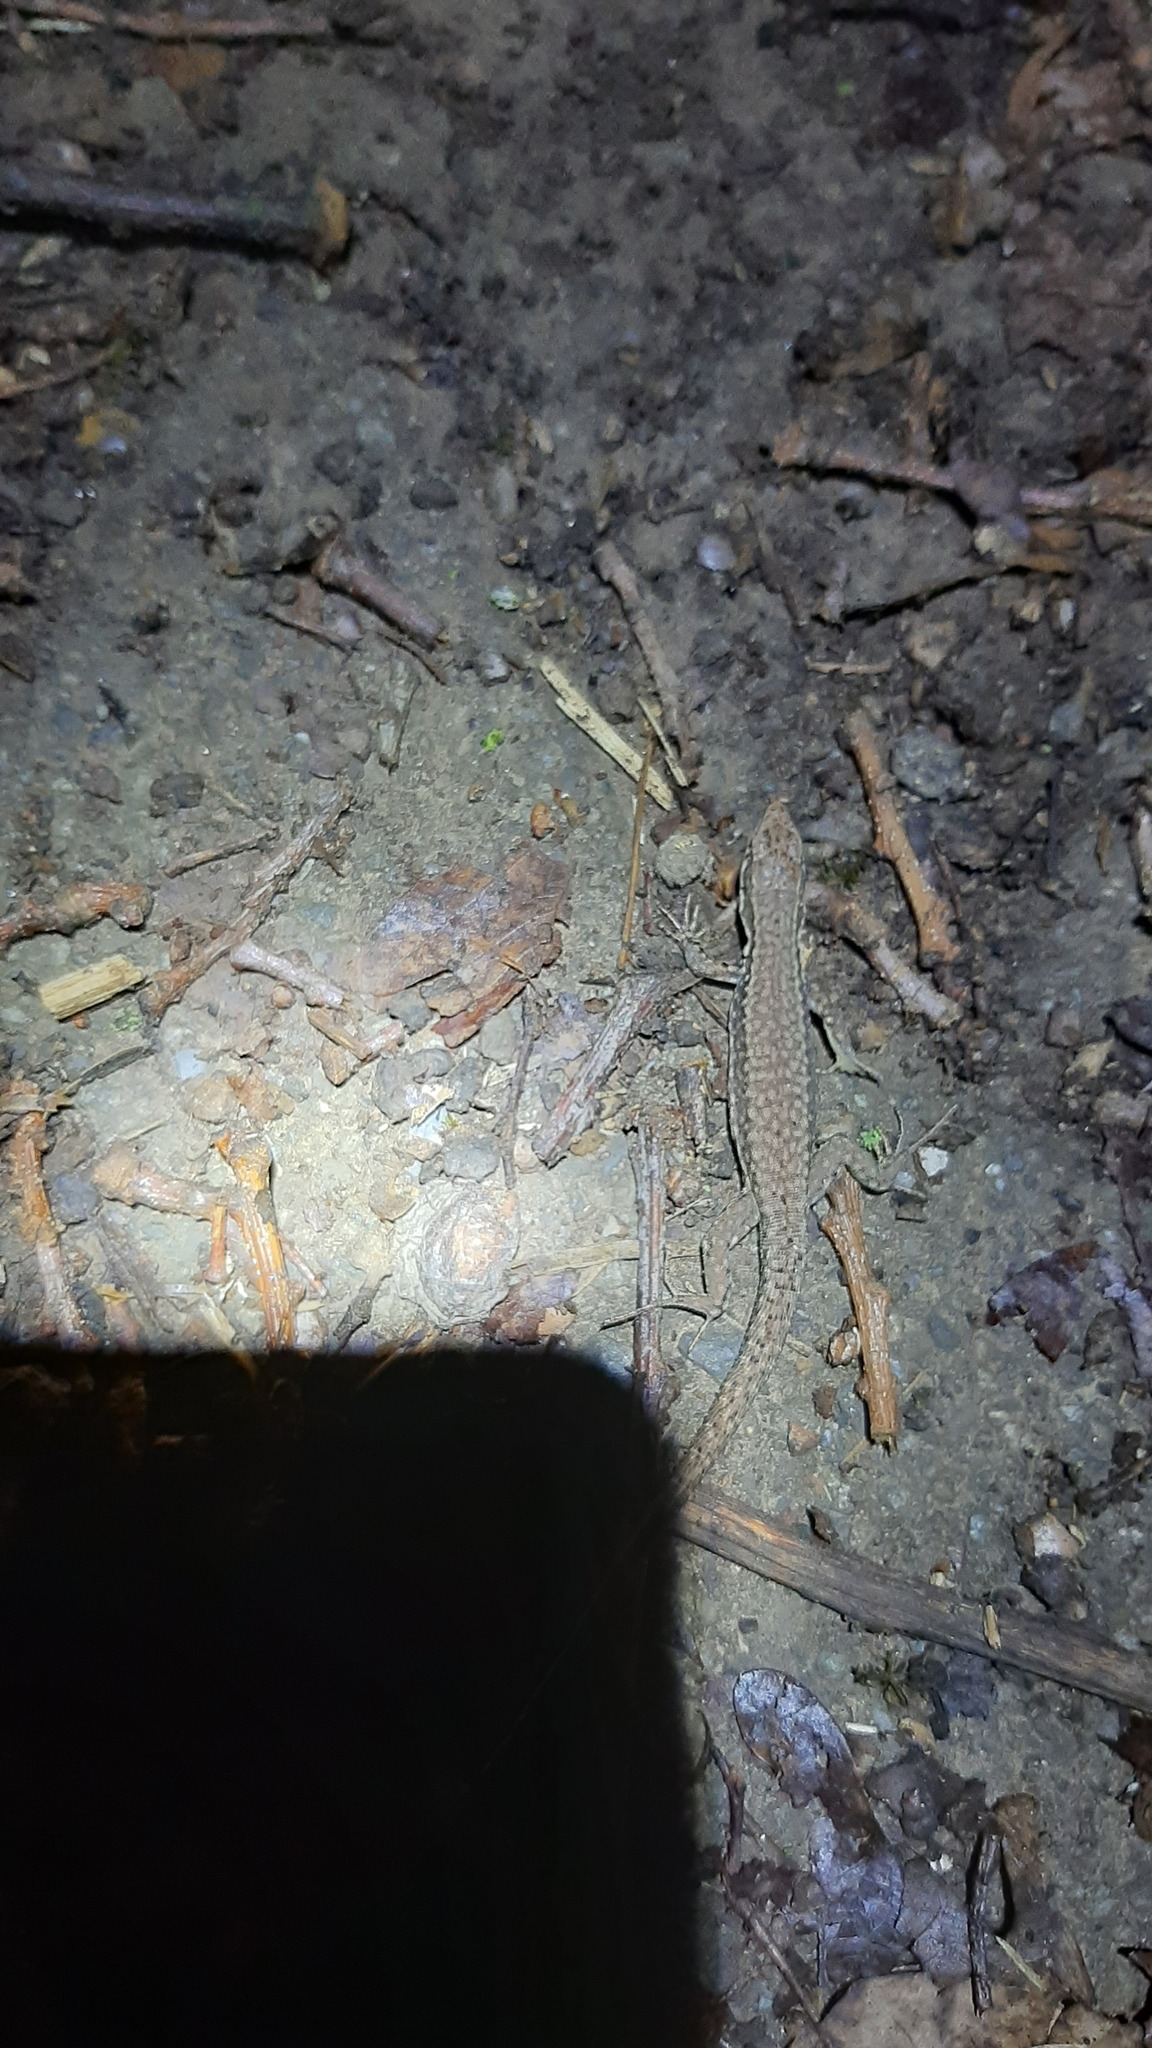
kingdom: Animalia
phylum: Chordata
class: Squamata
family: Lacertidae
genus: Podarcis
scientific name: Podarcis muralis
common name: Common wall lizard
